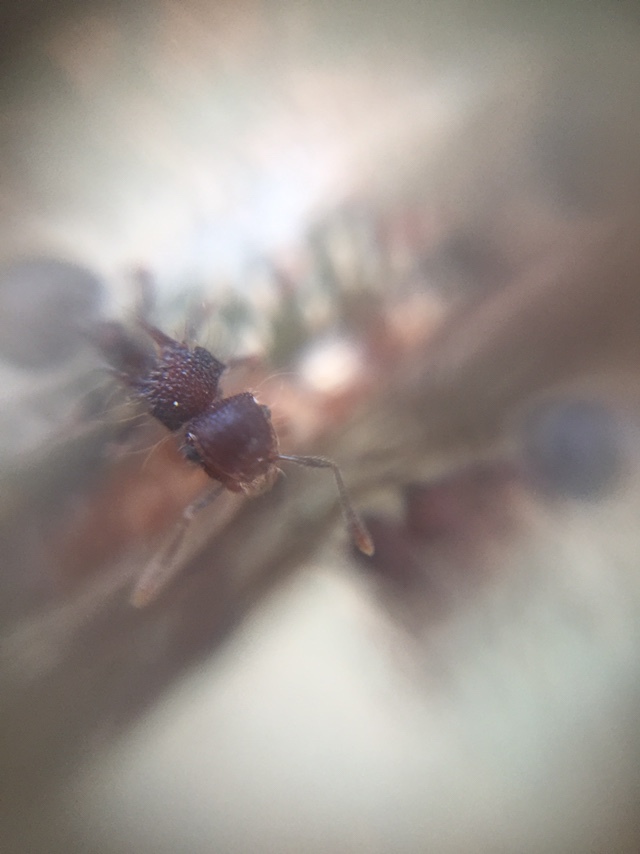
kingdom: Animalia
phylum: Arthropoda
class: Insecta
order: Hymenoptera
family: Formicidae
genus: Meranoplus
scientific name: Meranoplus bicolor
